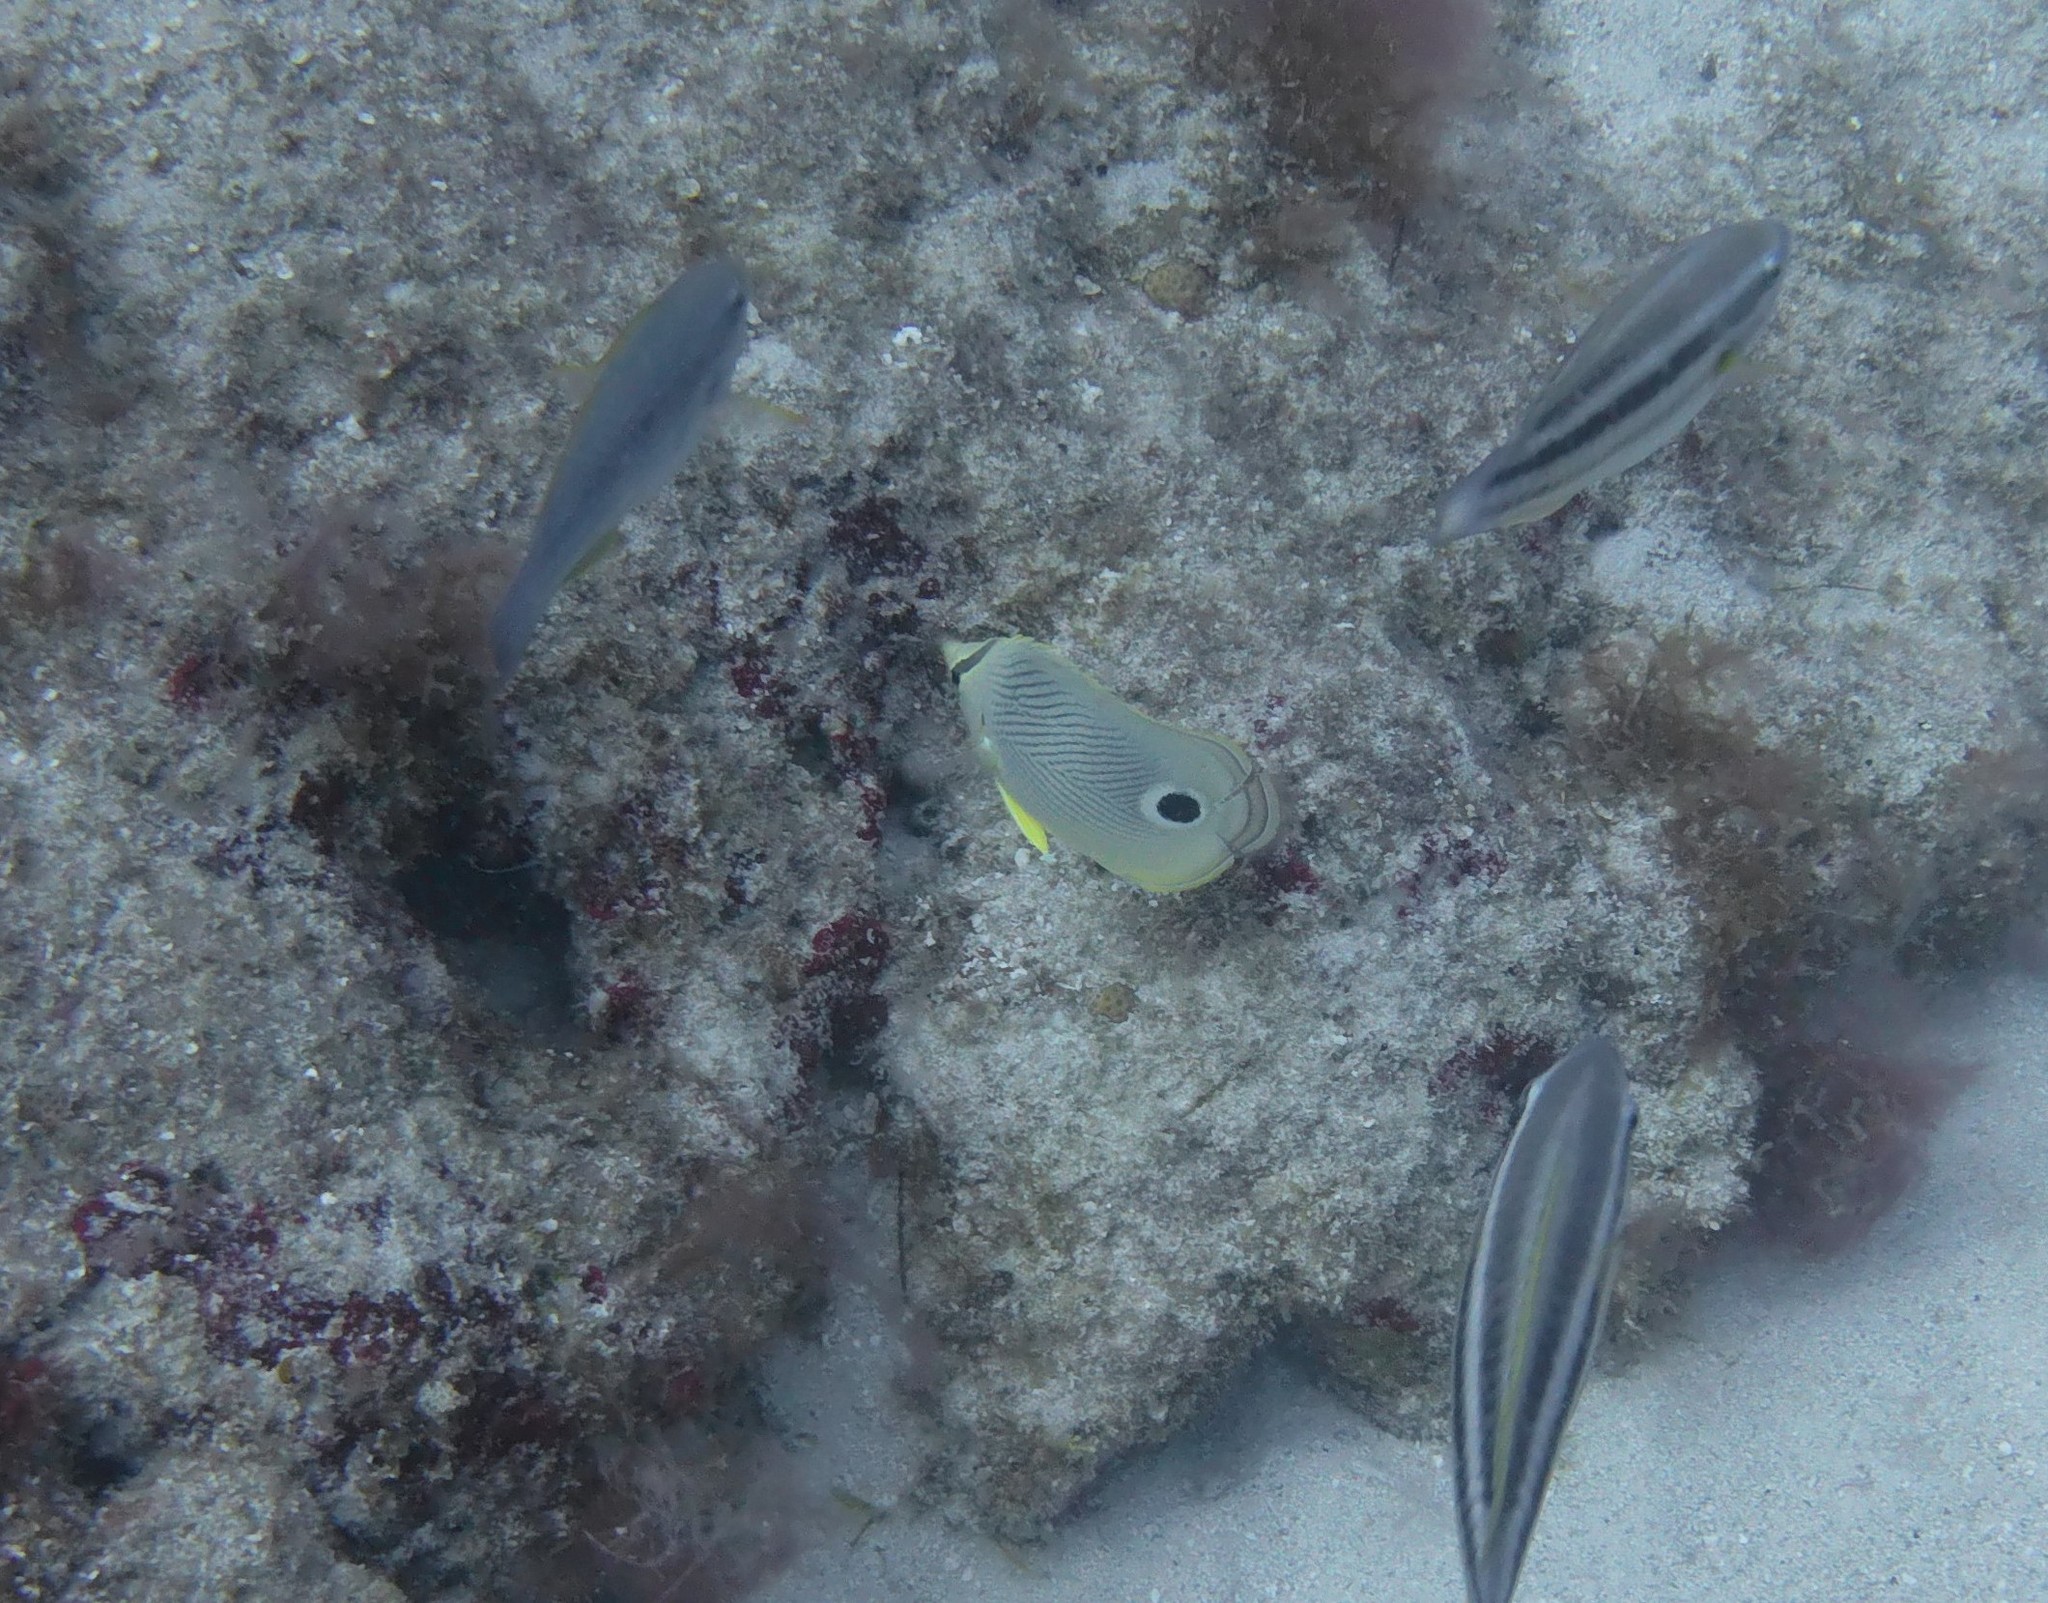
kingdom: Animalia
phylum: Chordata
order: Perciformes
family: Chaetodontidae
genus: Chaetodon
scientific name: Chaetodon capistratus
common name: Kete
